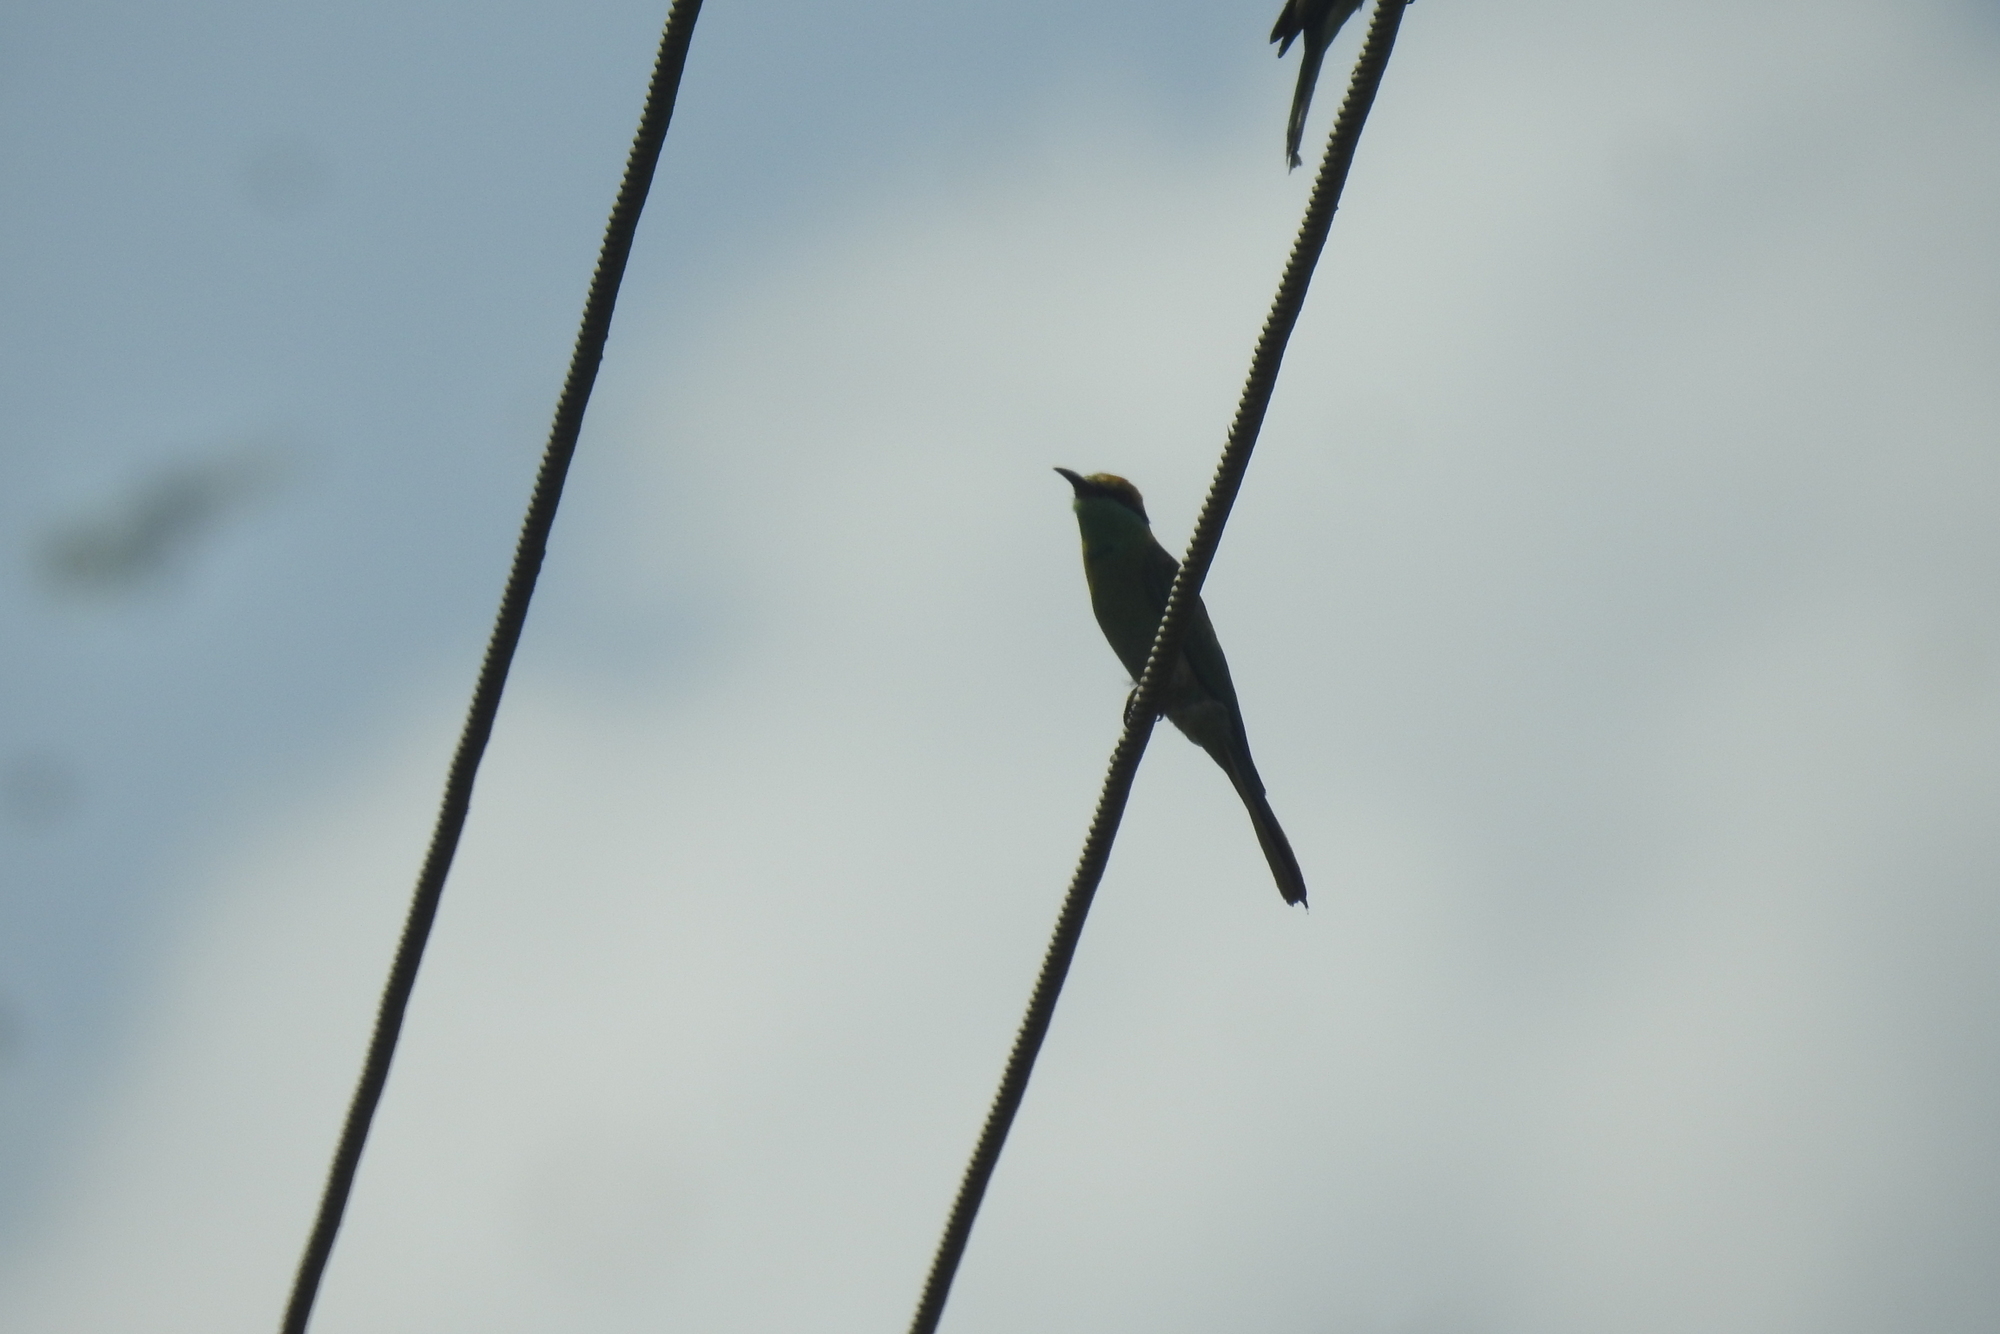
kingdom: Animalia
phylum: Chordata
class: Aves
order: Coraciiformes
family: Meropidae
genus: Merops
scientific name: Merops orientalis
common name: Green bee-eater
